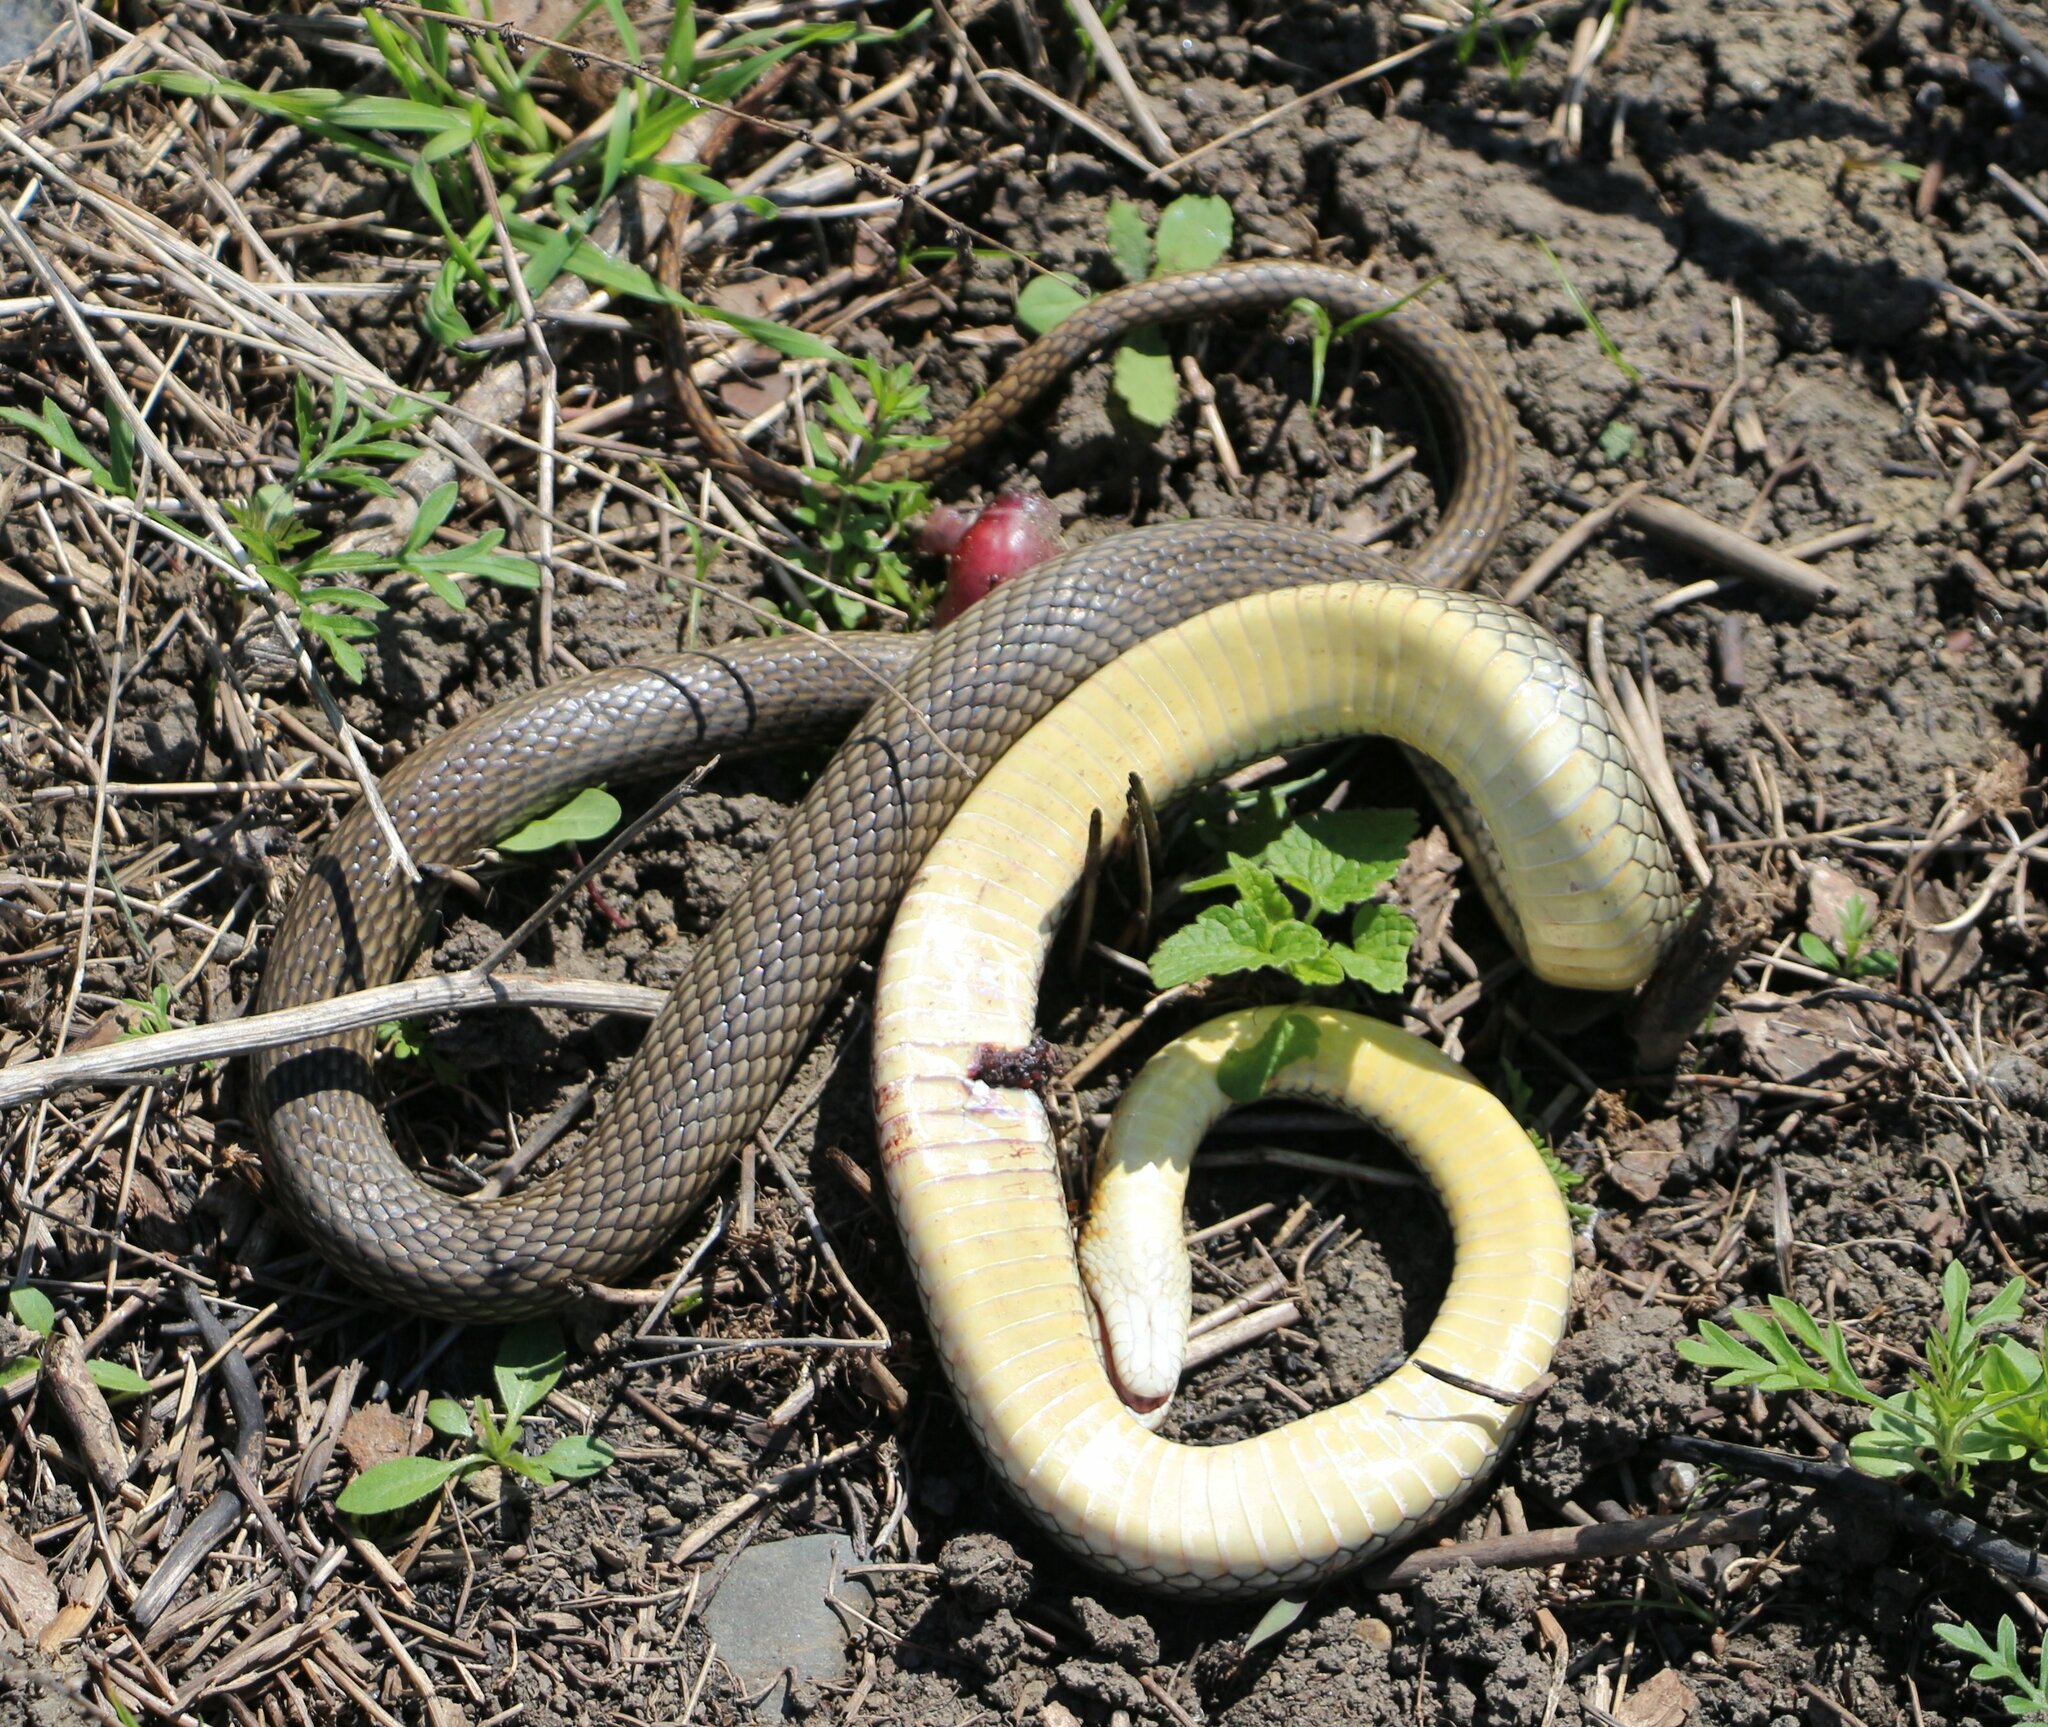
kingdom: Animalia
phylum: Chordata
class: Squamata
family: Colubridae
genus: Dolichophis
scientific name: Dolichophis caspius
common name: Large whip snake
